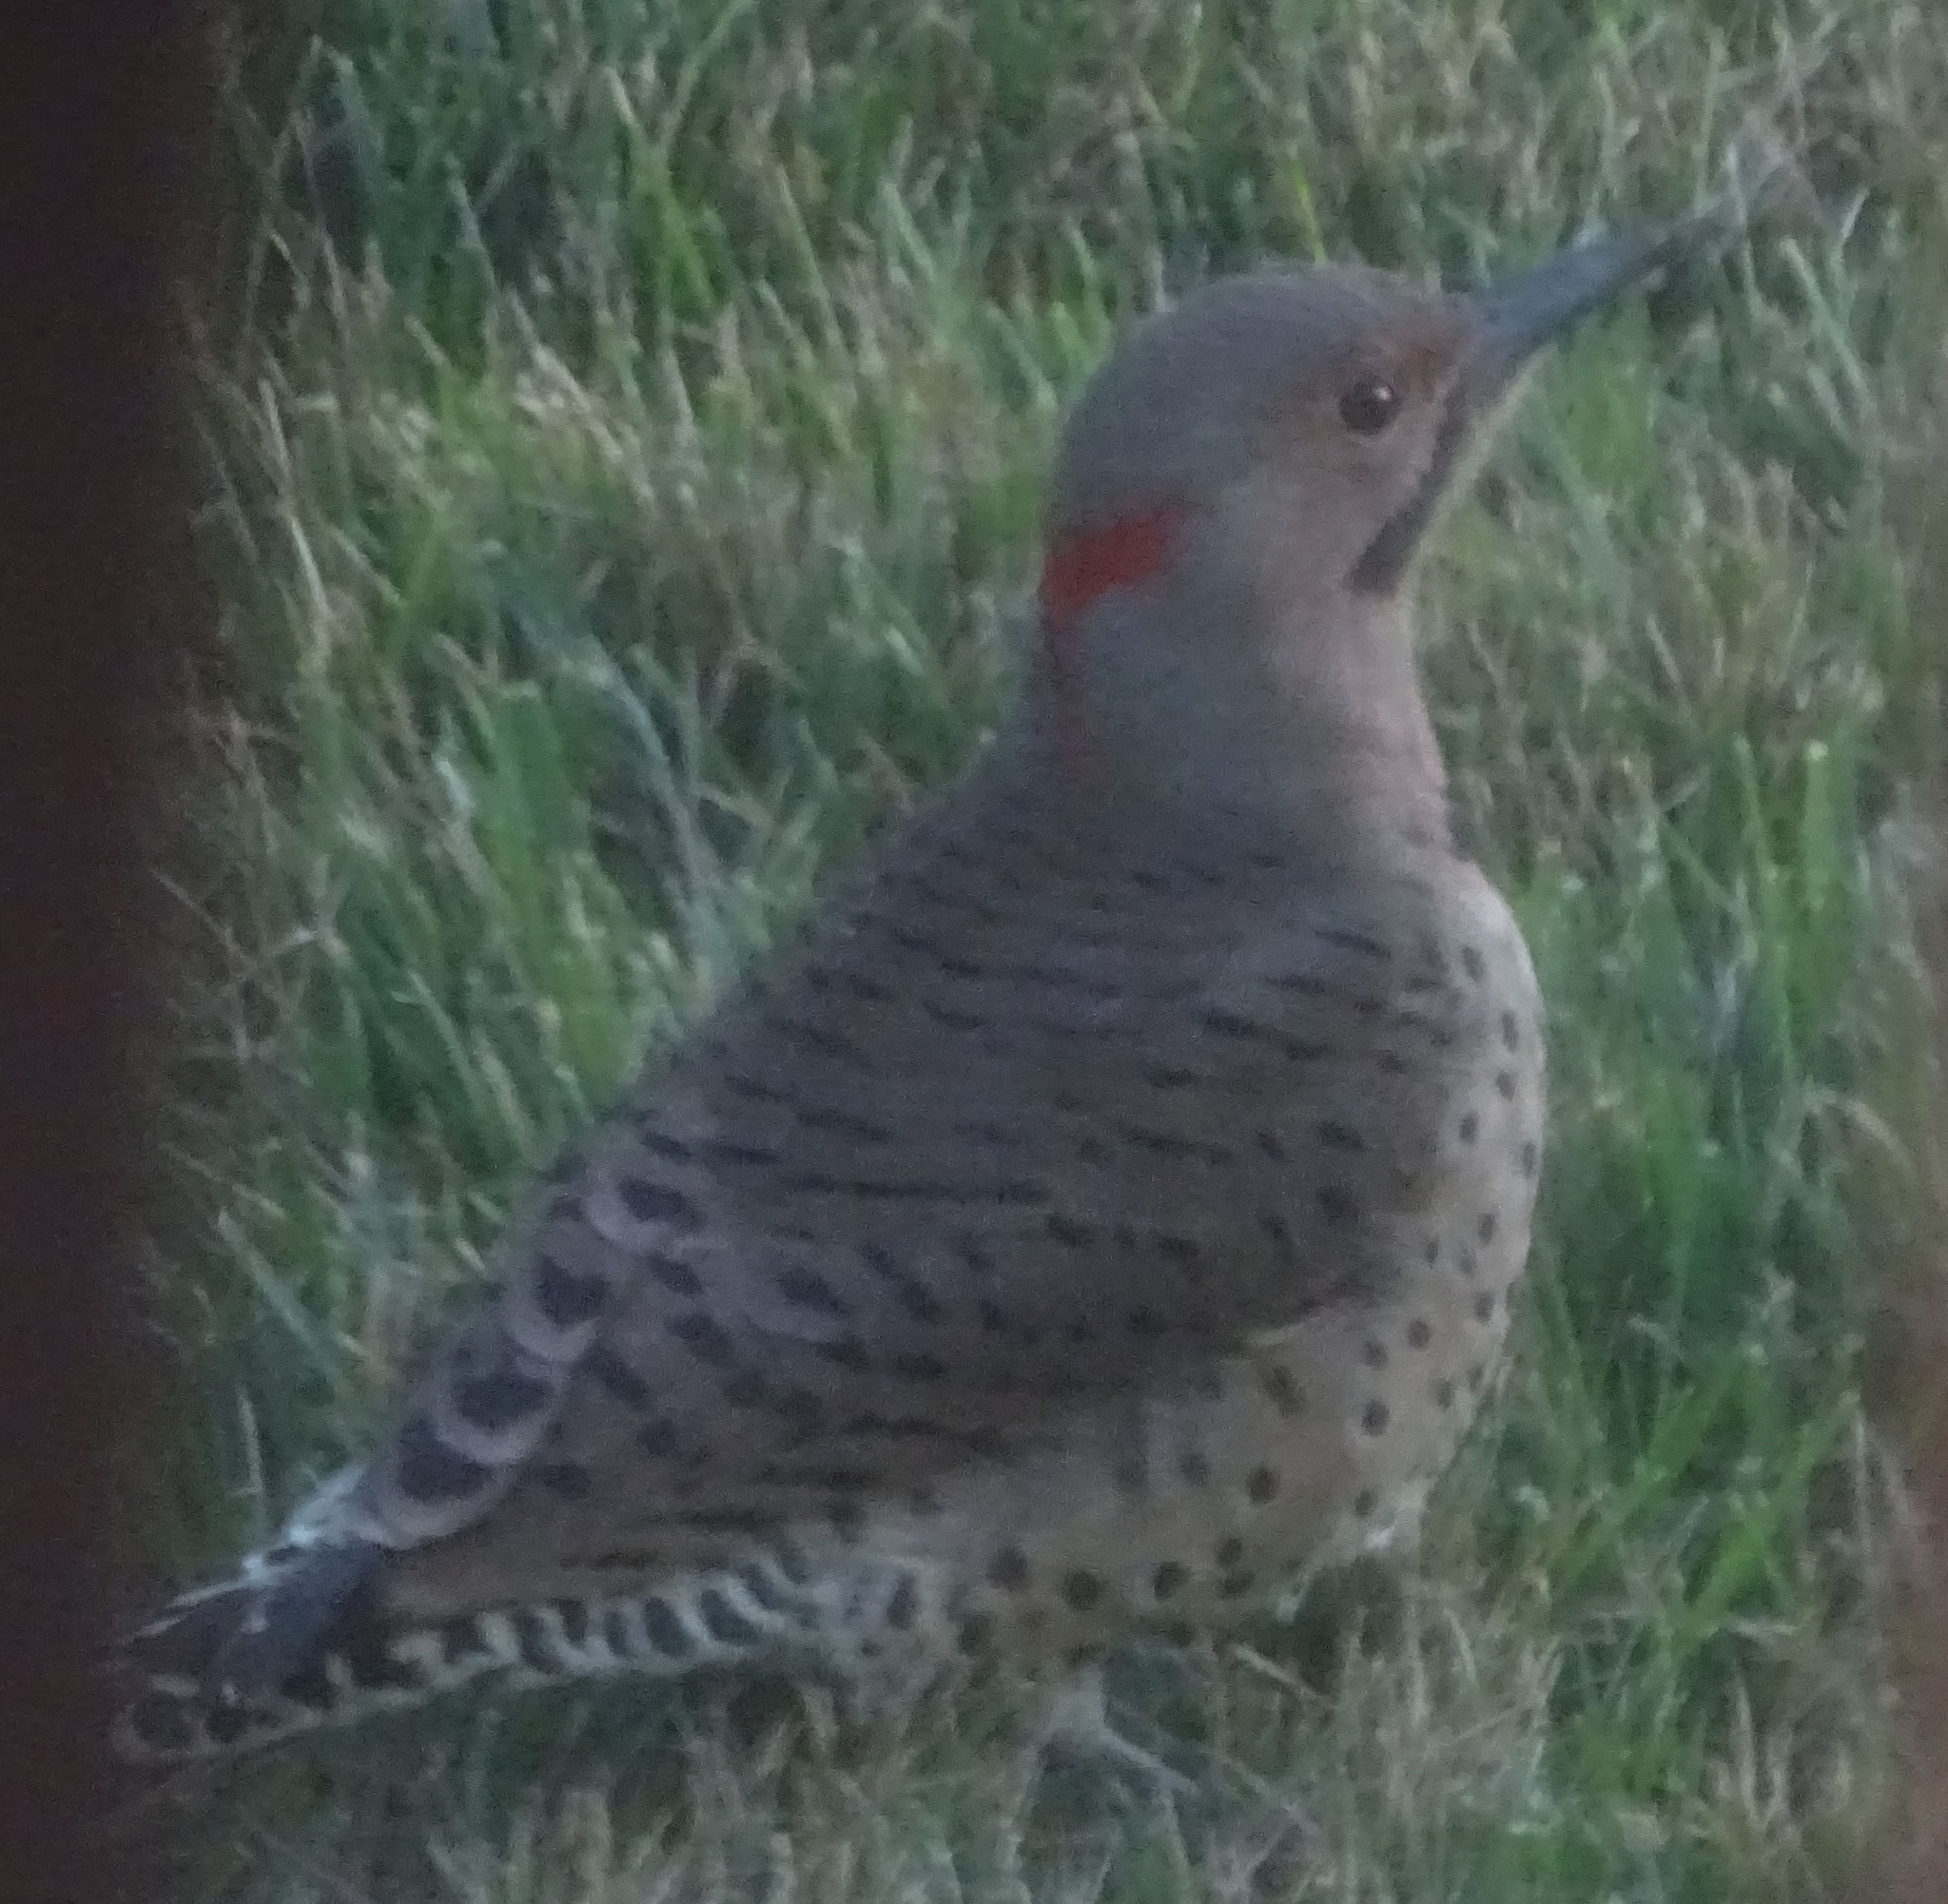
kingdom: Animalia
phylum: Chordata
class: Aves
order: Piciformes
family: Picidae
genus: Colaptes
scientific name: Colaptes auratus
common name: Northern flicker
